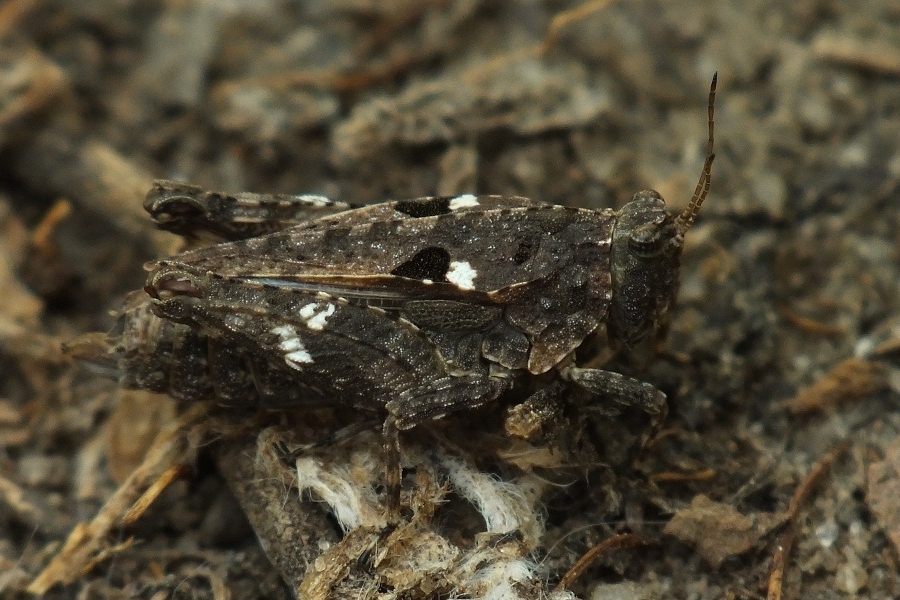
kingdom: Animalia
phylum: Arthropoda
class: Insecta
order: Orthoptera
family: Tetrigidae
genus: Tetrix
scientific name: Tetrix tenuicornis
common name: Long-horned groundhopper
